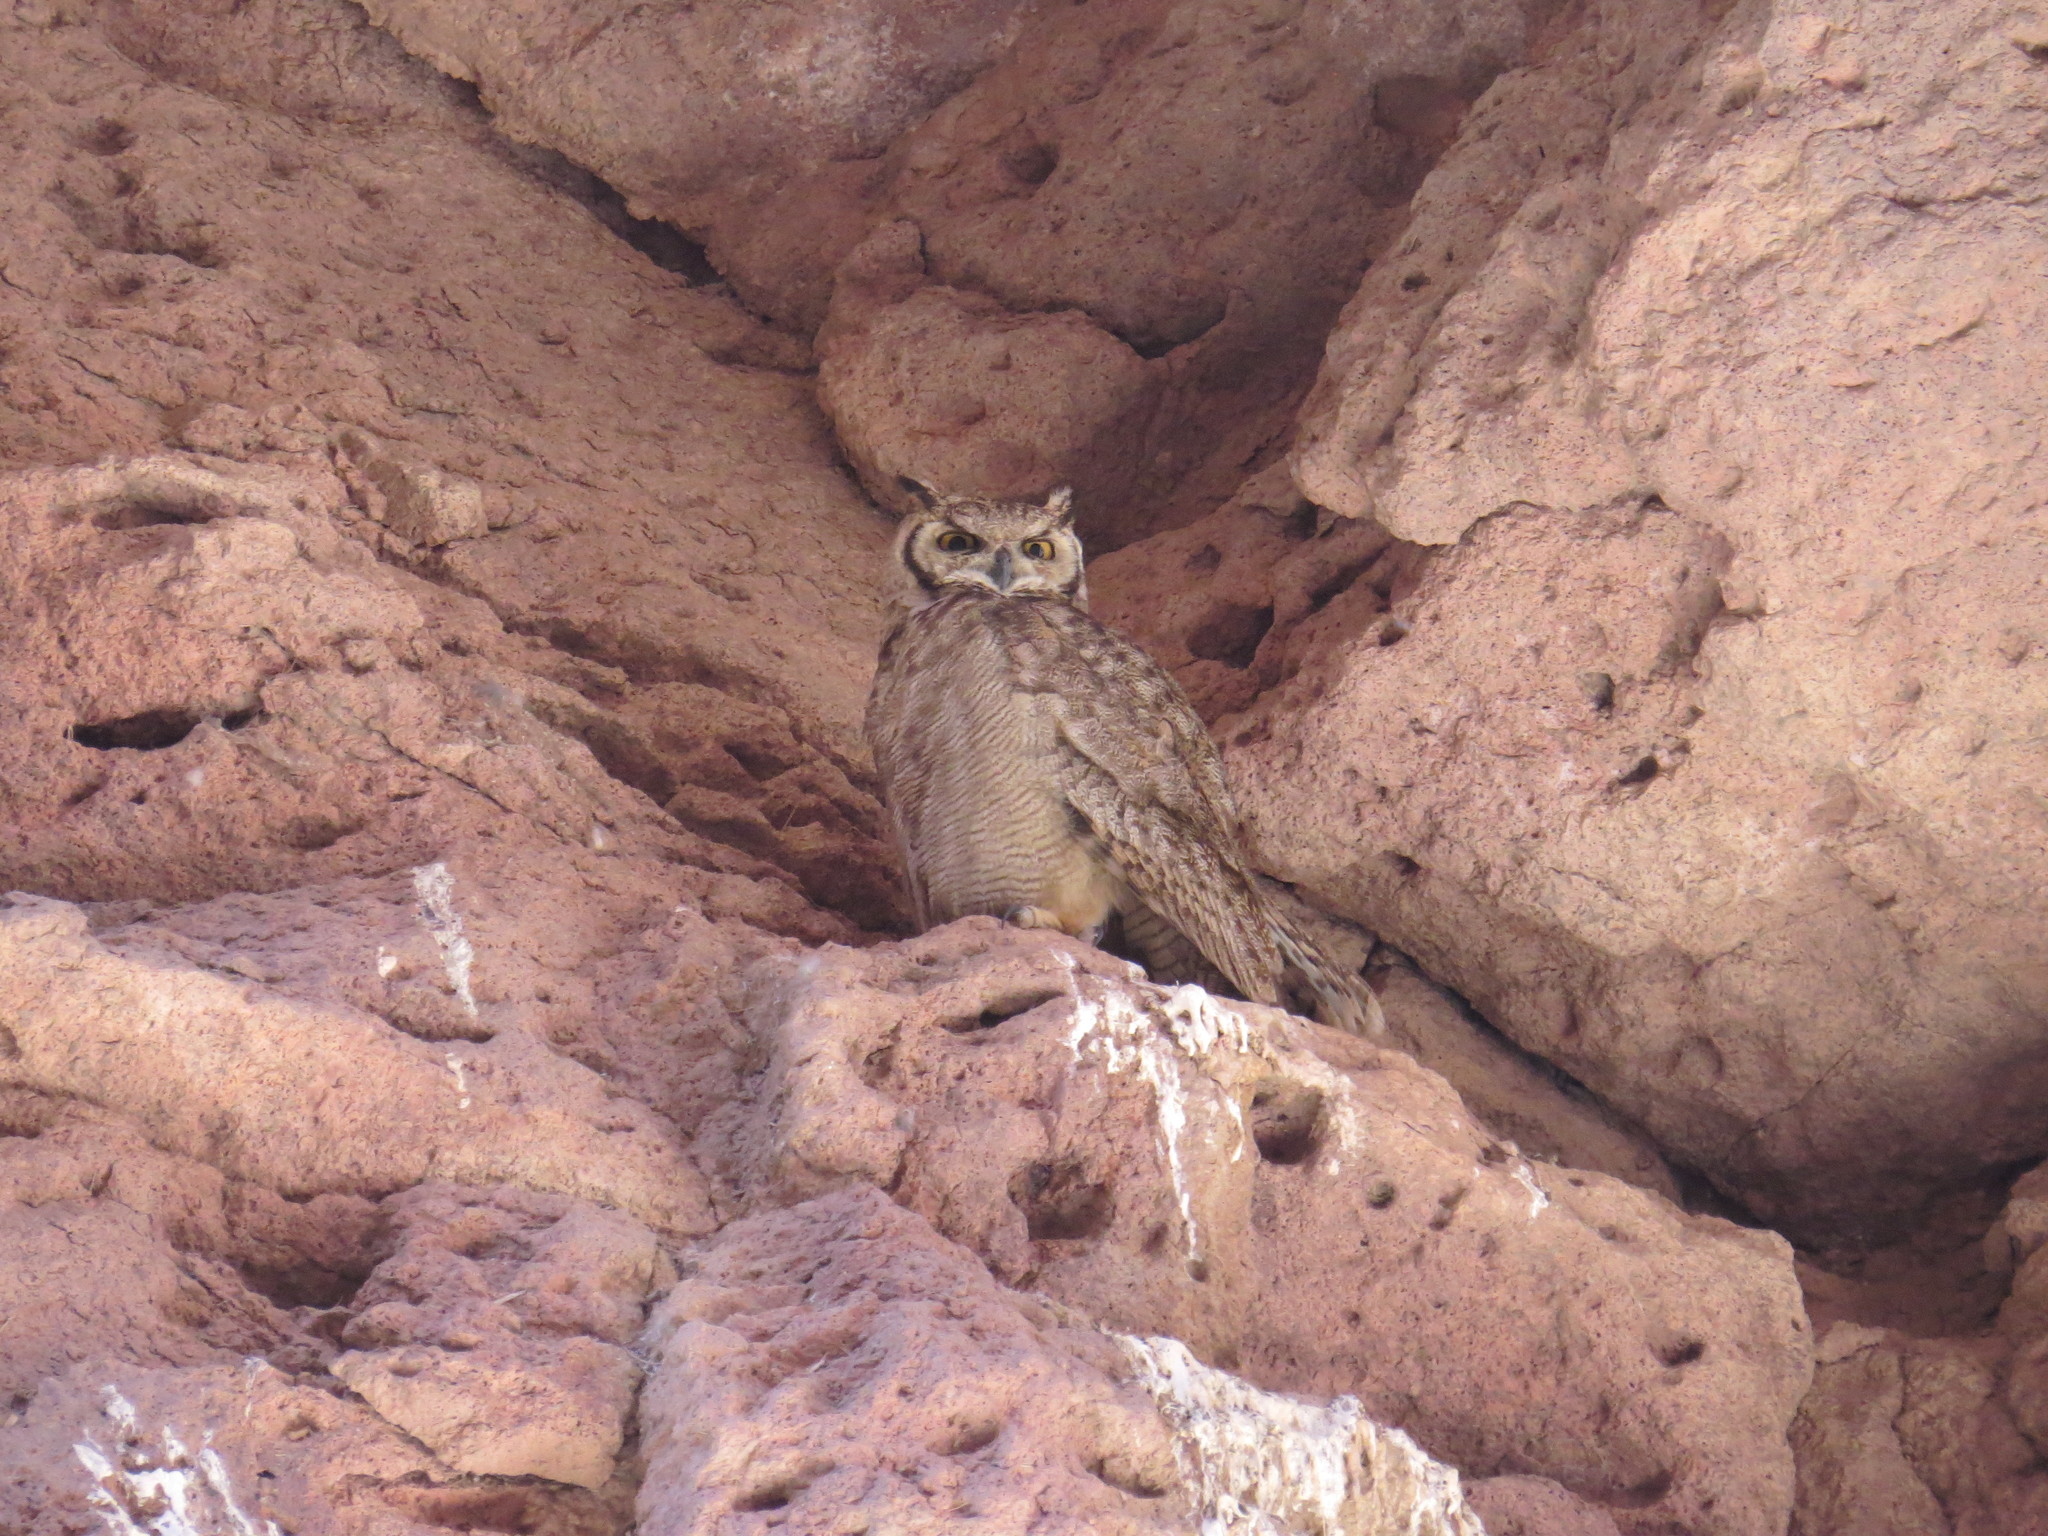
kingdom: Animalia
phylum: Chordata
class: Aves
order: Strigiformes
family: Strigidae
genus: Bubo
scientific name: Bubo magellanicus
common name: Lesser horned owl
